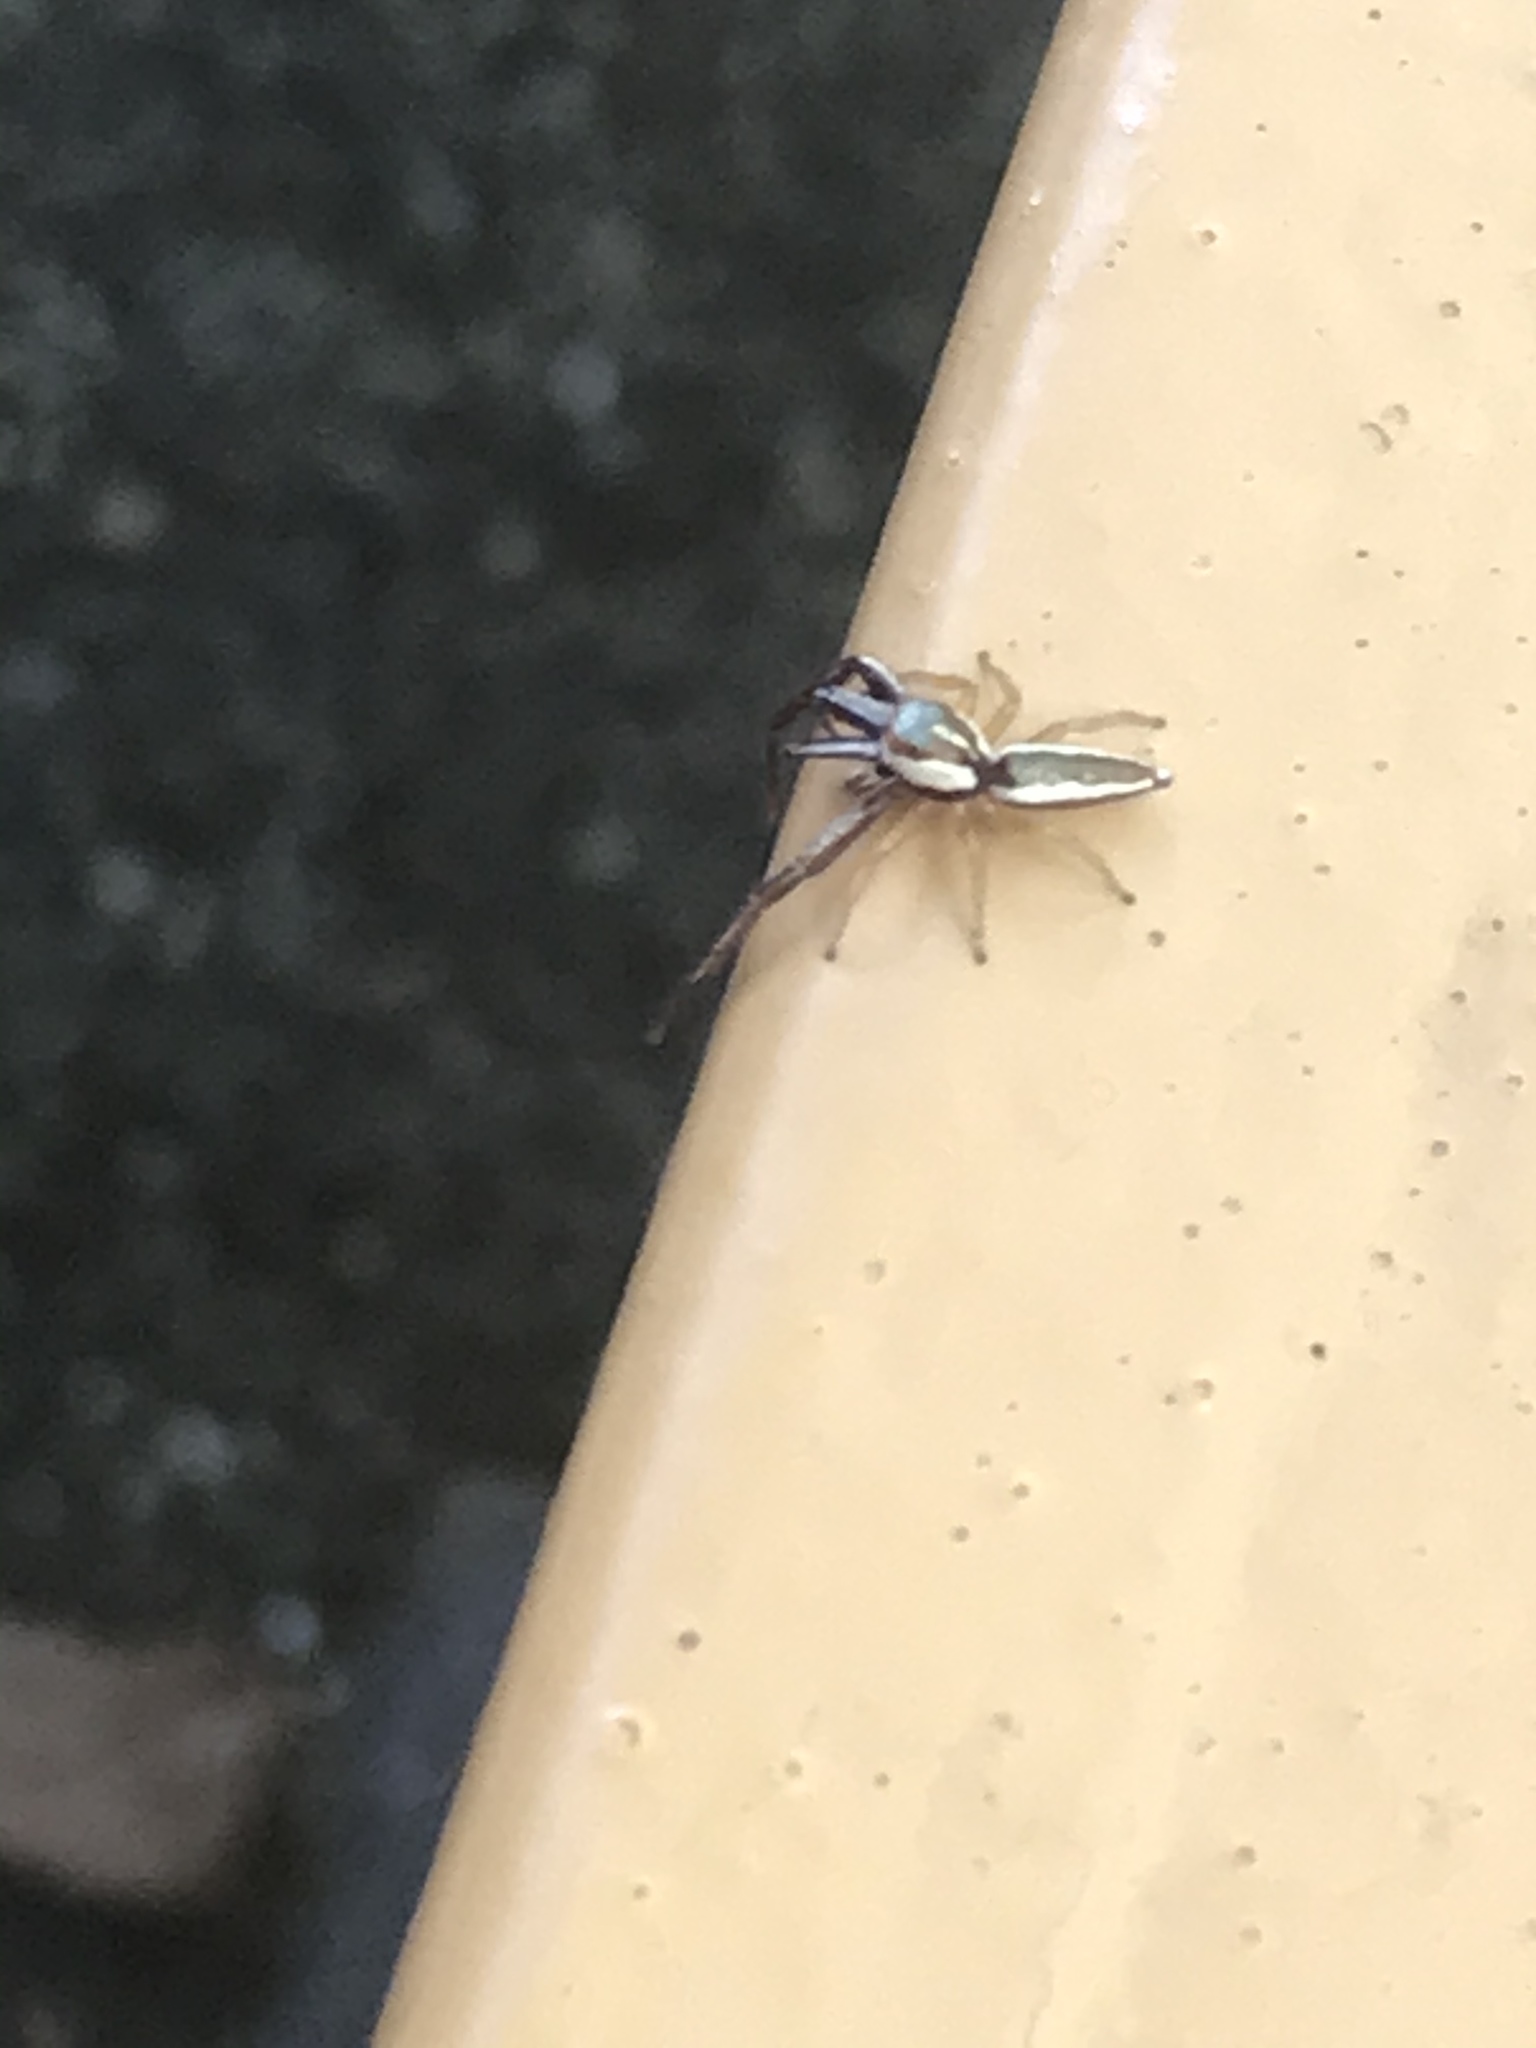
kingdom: Animalia
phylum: Arthropoda
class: Arachnida
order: Araneae
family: Salticidae
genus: Hentzia
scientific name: Hentzia palmarum
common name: Common hentz jumping spider
